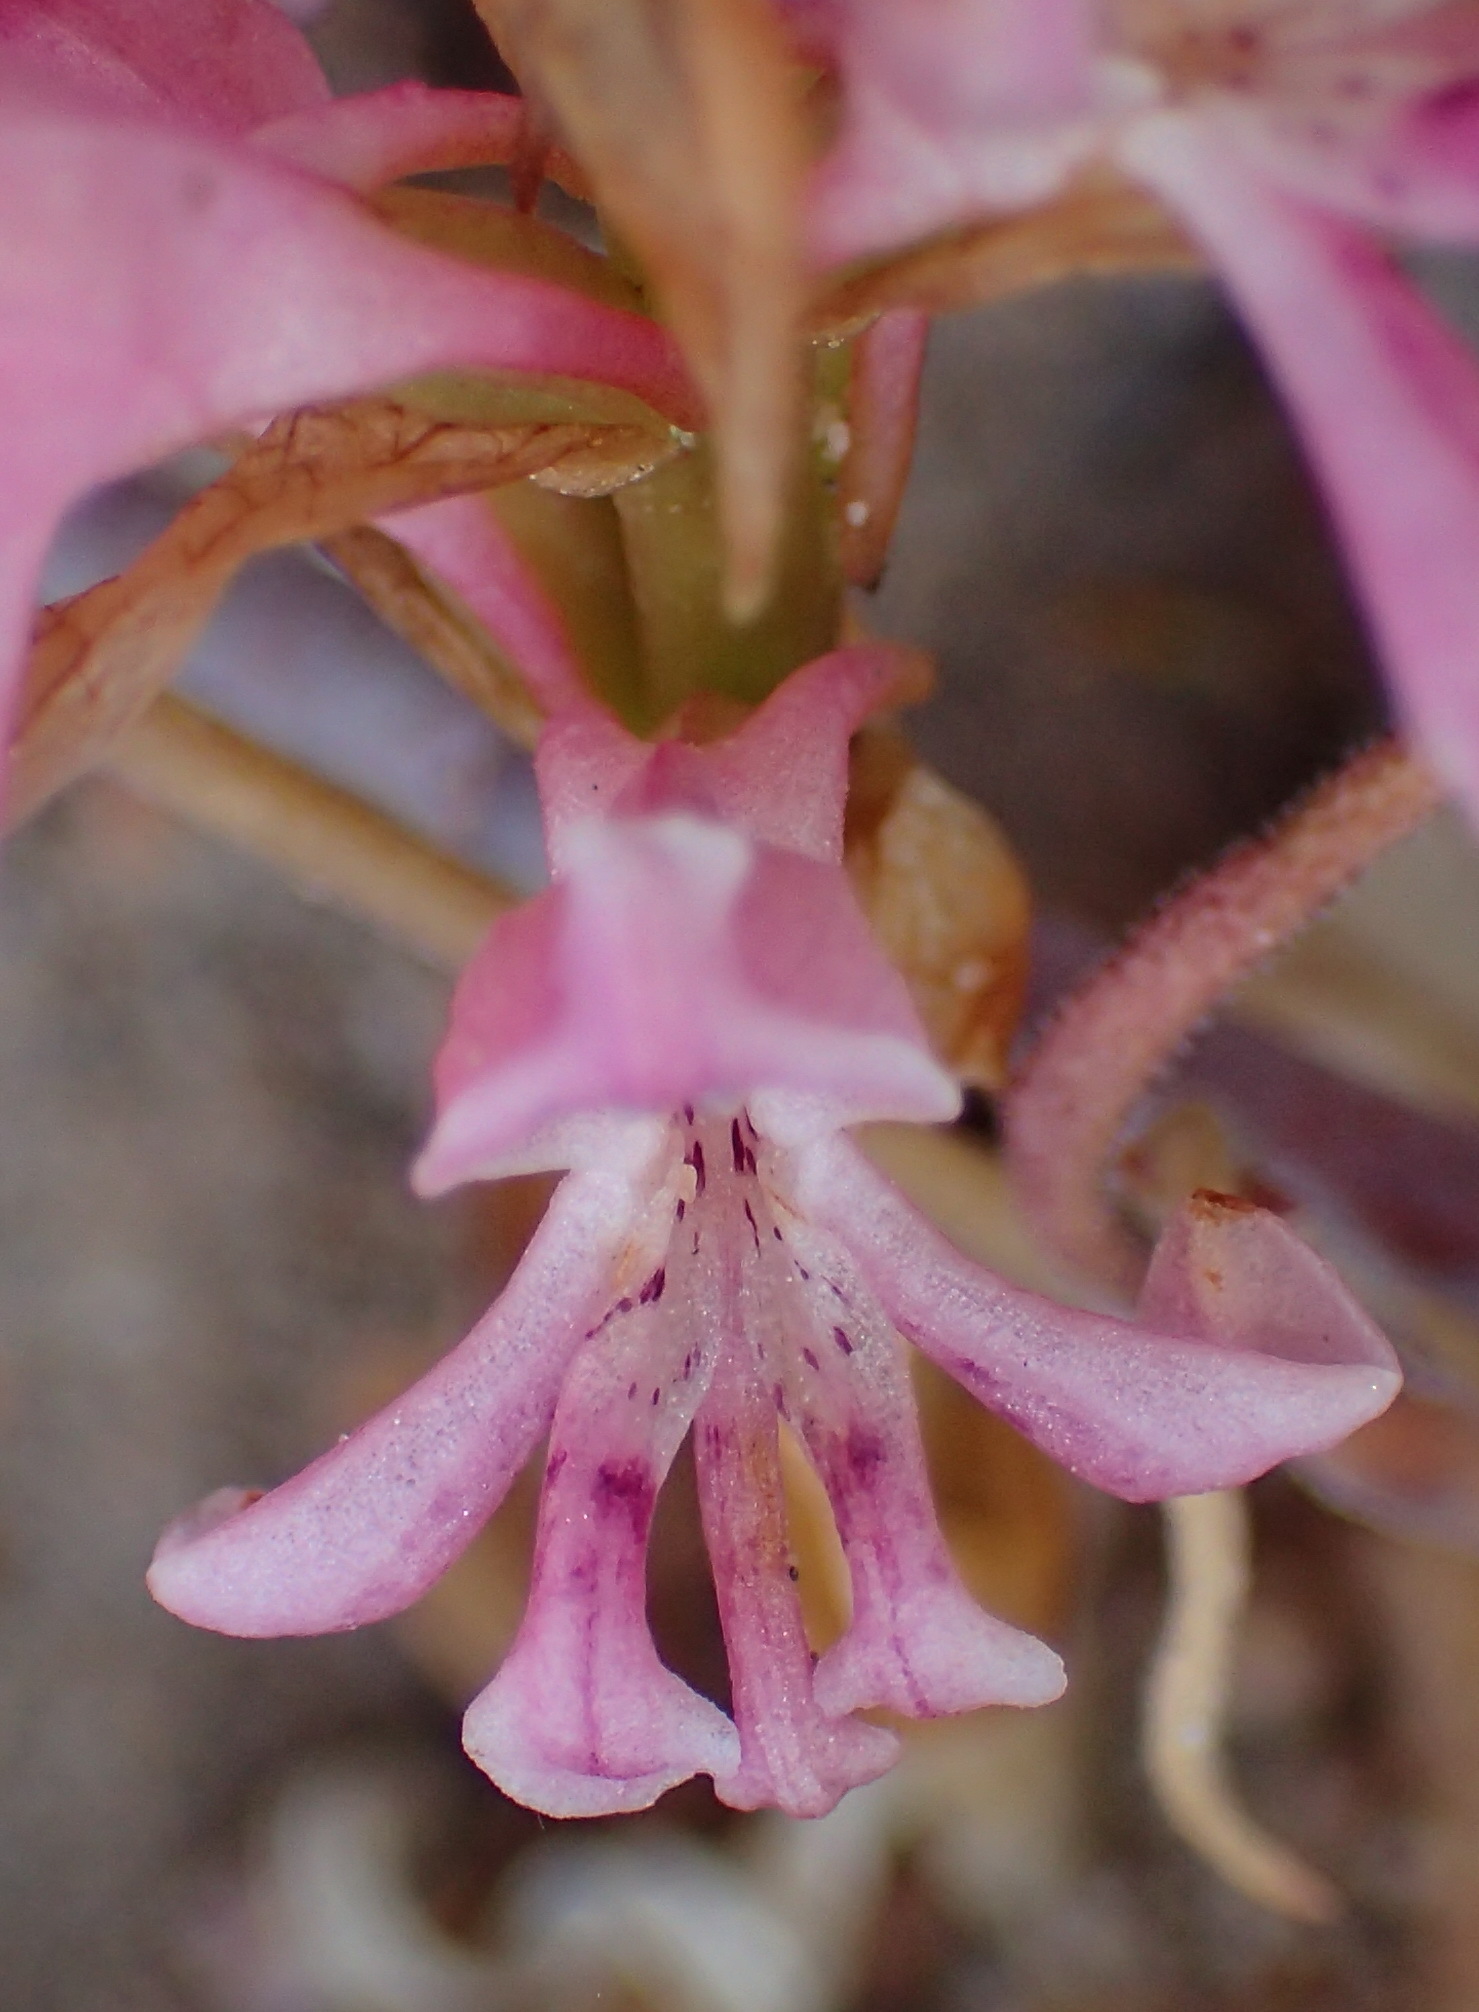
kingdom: Plantae
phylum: Tracheophyta
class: Liliopsida
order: Asparagales
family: Orchidaceae
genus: Satyrium
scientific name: Satyrium erectum
